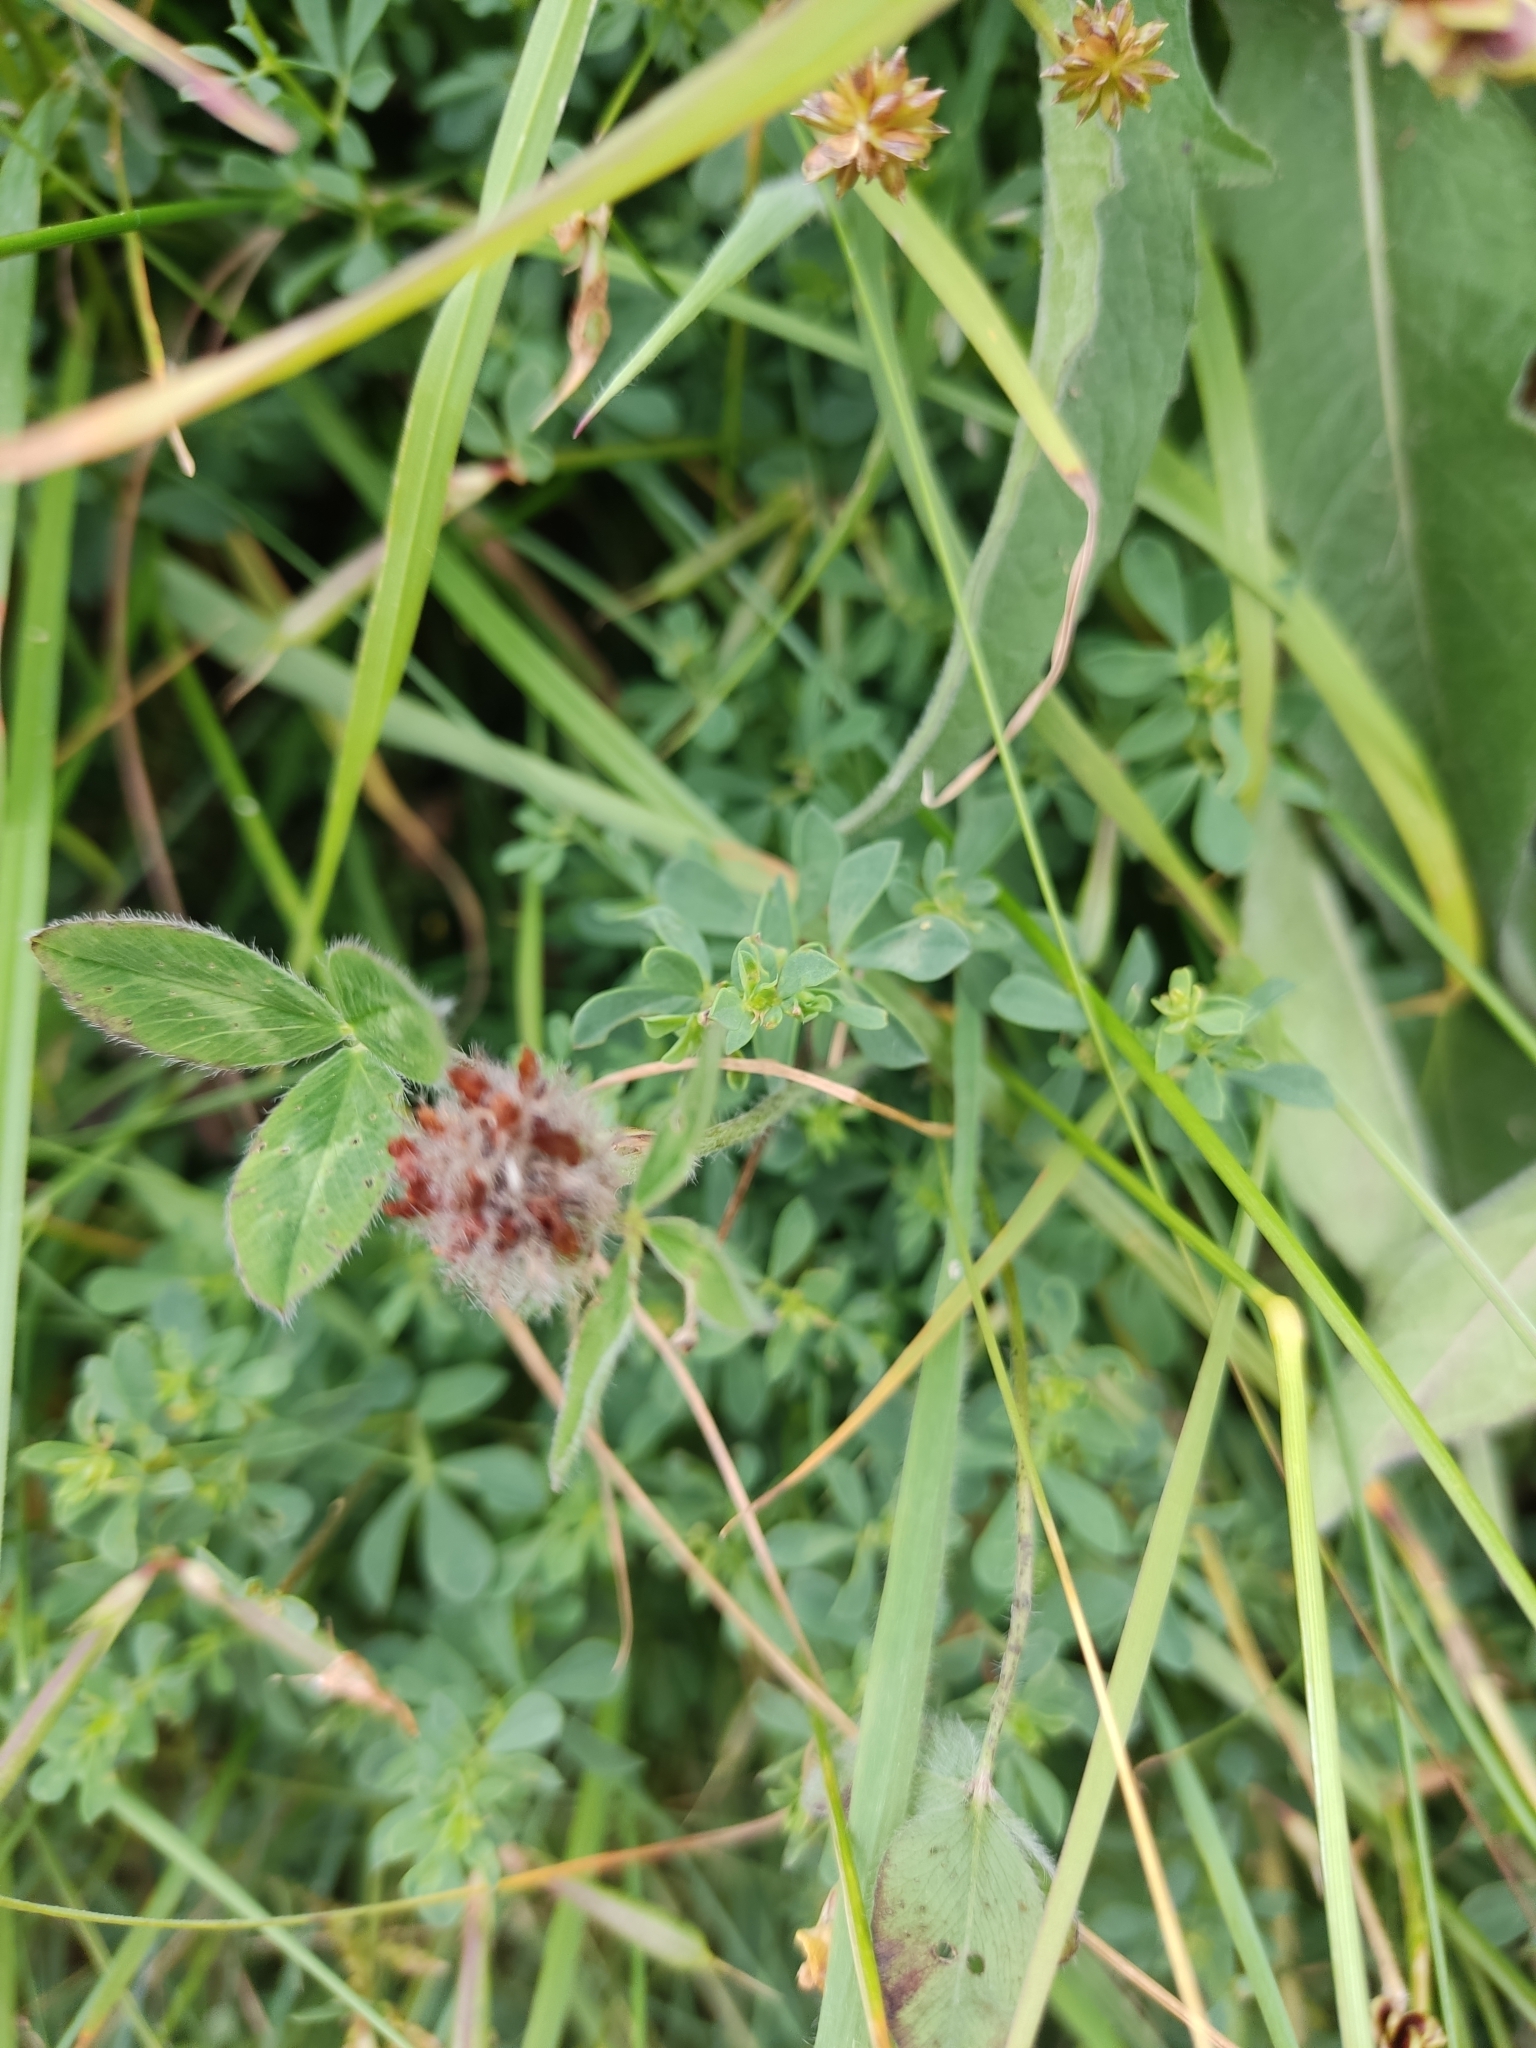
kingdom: Plantae
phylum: Tracheophyta
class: Magnoliopsida
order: Fabales
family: Fabaceae
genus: Trifolium
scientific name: Trifolium pratense
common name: Red clover
